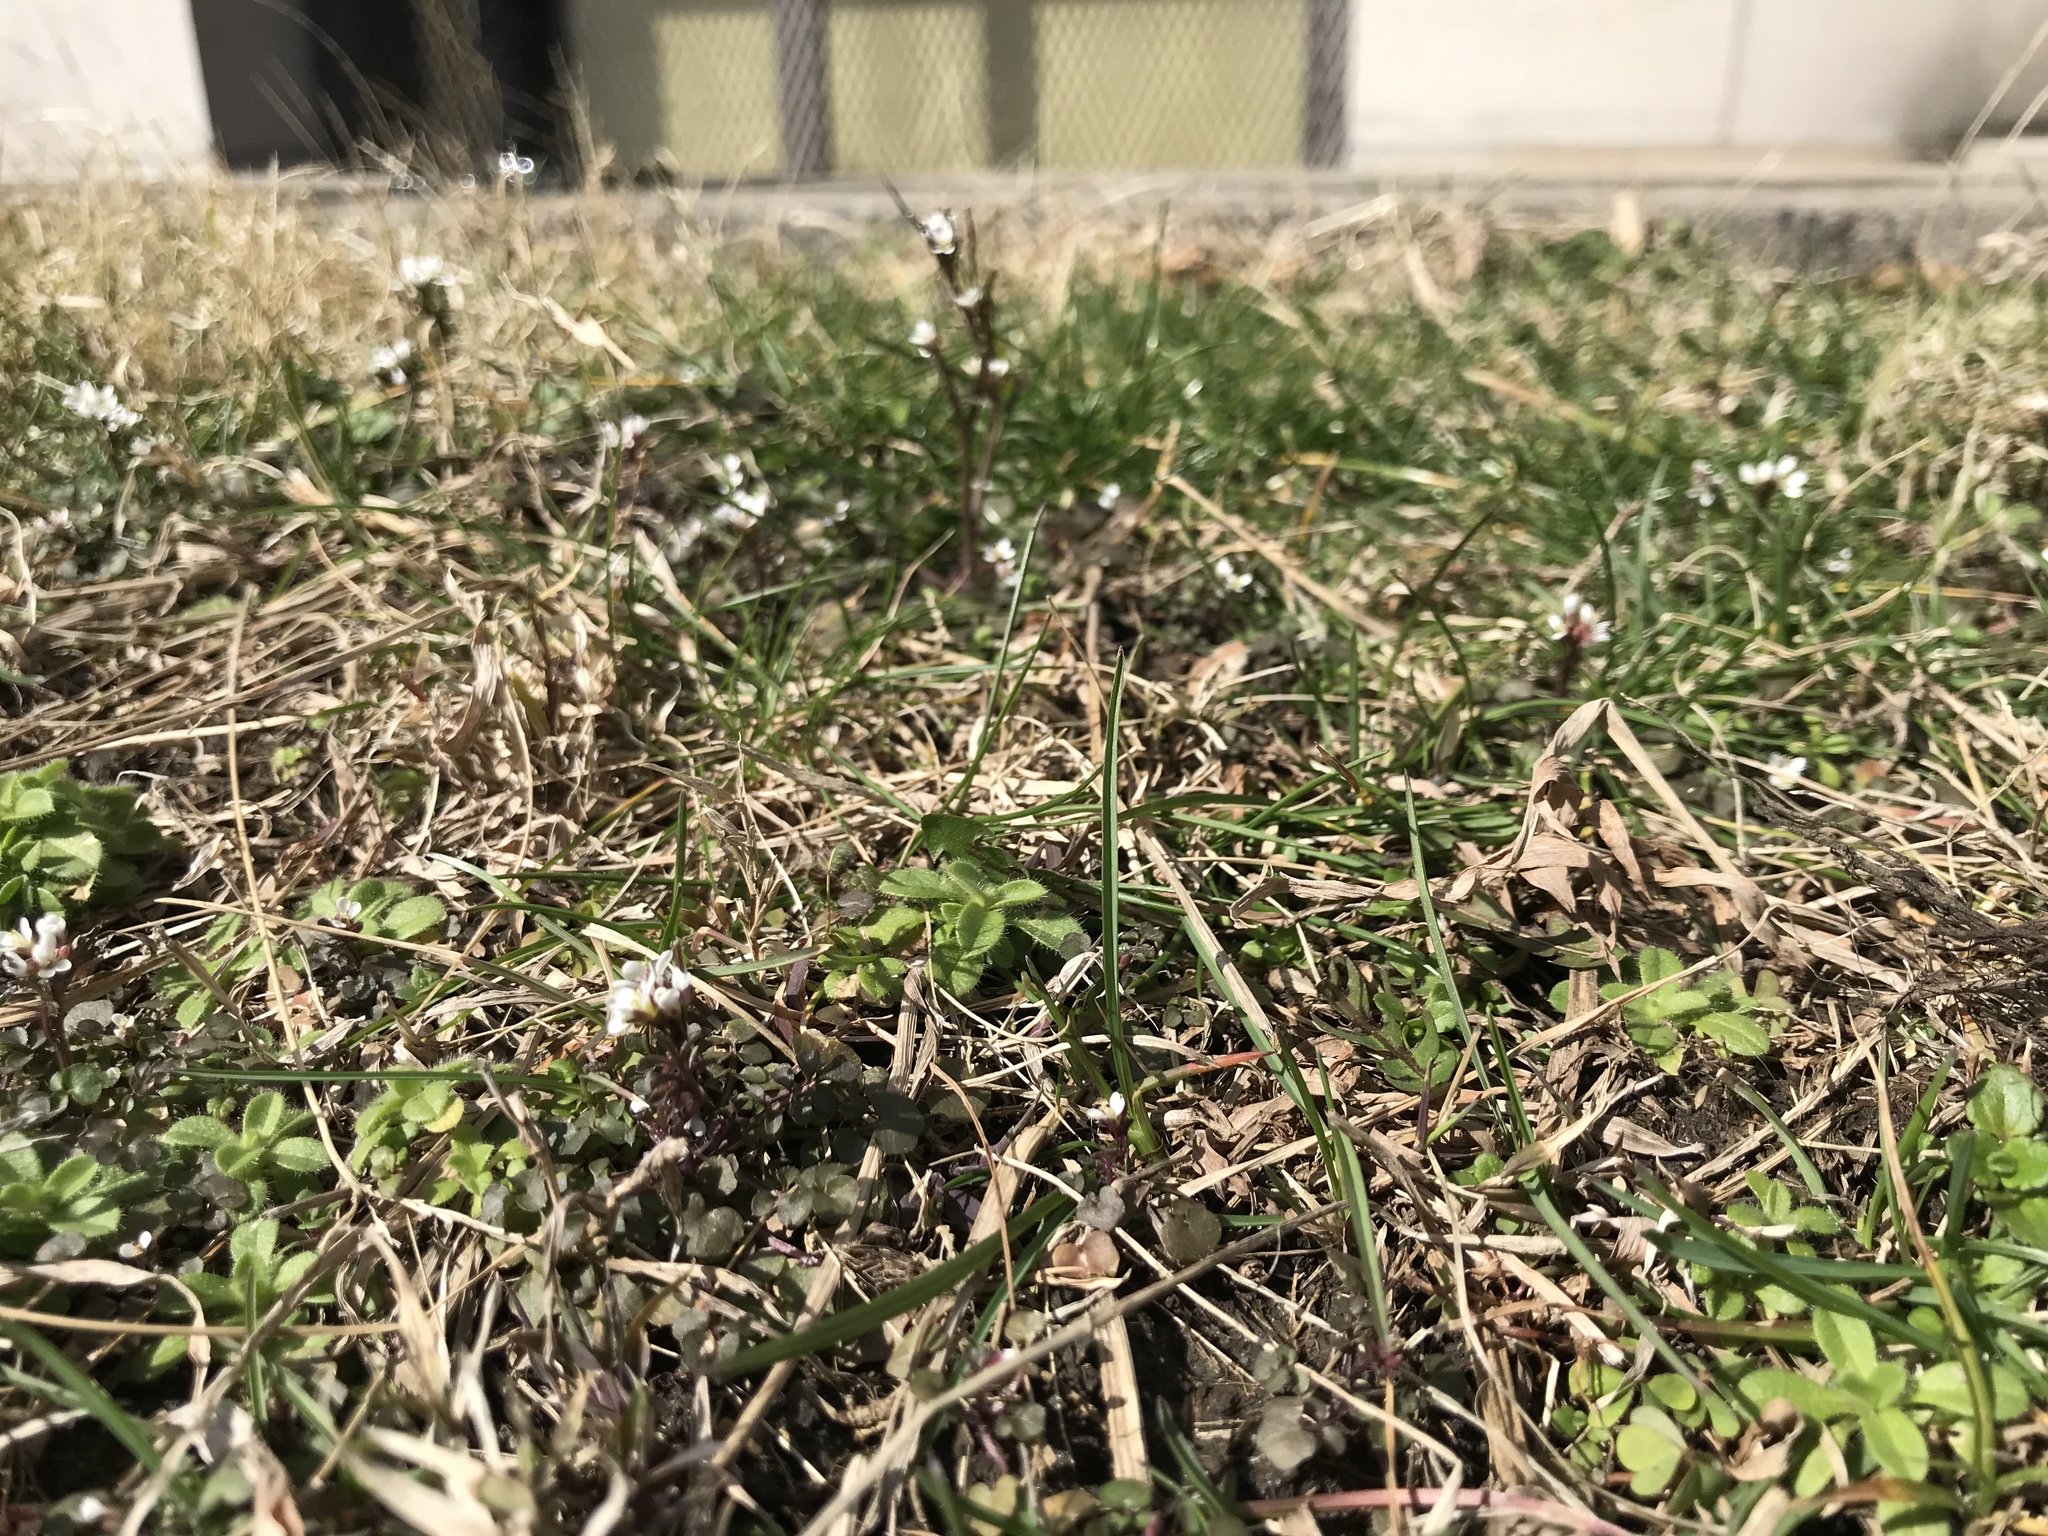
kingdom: Plantae
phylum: Tracheophyta
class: Magnoliopsida
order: Brassicales
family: Brassicaceae
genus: Cardamine
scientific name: Cardamine hirsuta
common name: Hairy bittercress
